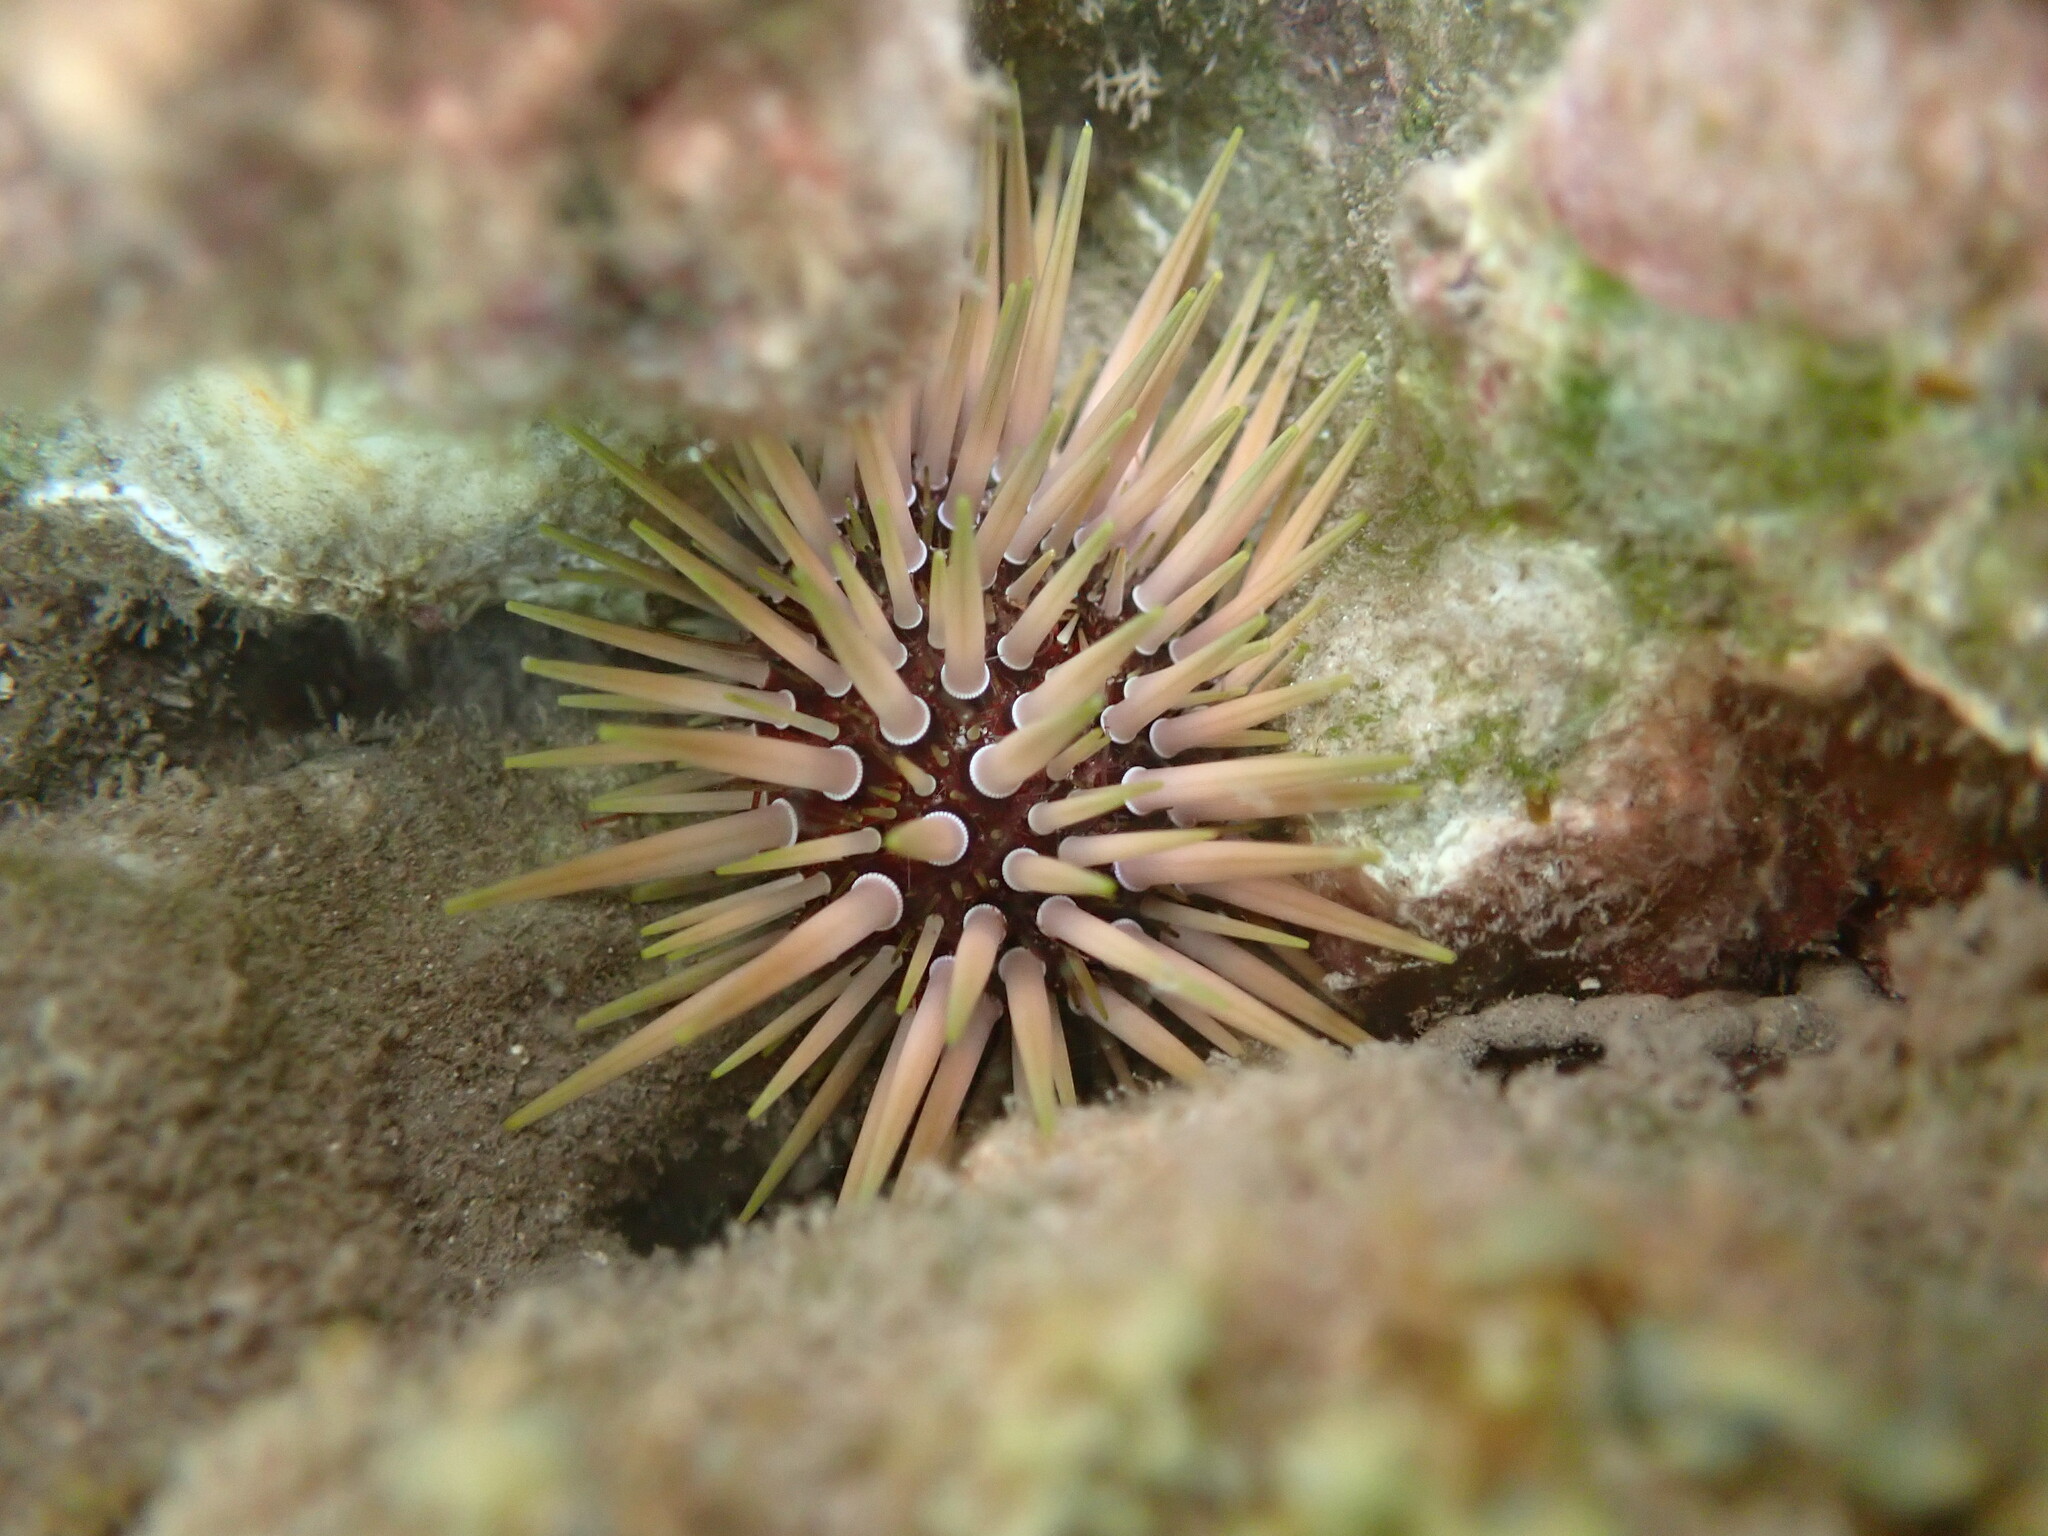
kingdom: Animalia
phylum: Echinodermata
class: Echinoidea
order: Camarodonta
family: Echinometridae
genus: Echinometra
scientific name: Echinometra mathaei
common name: Rock-boring urchin
